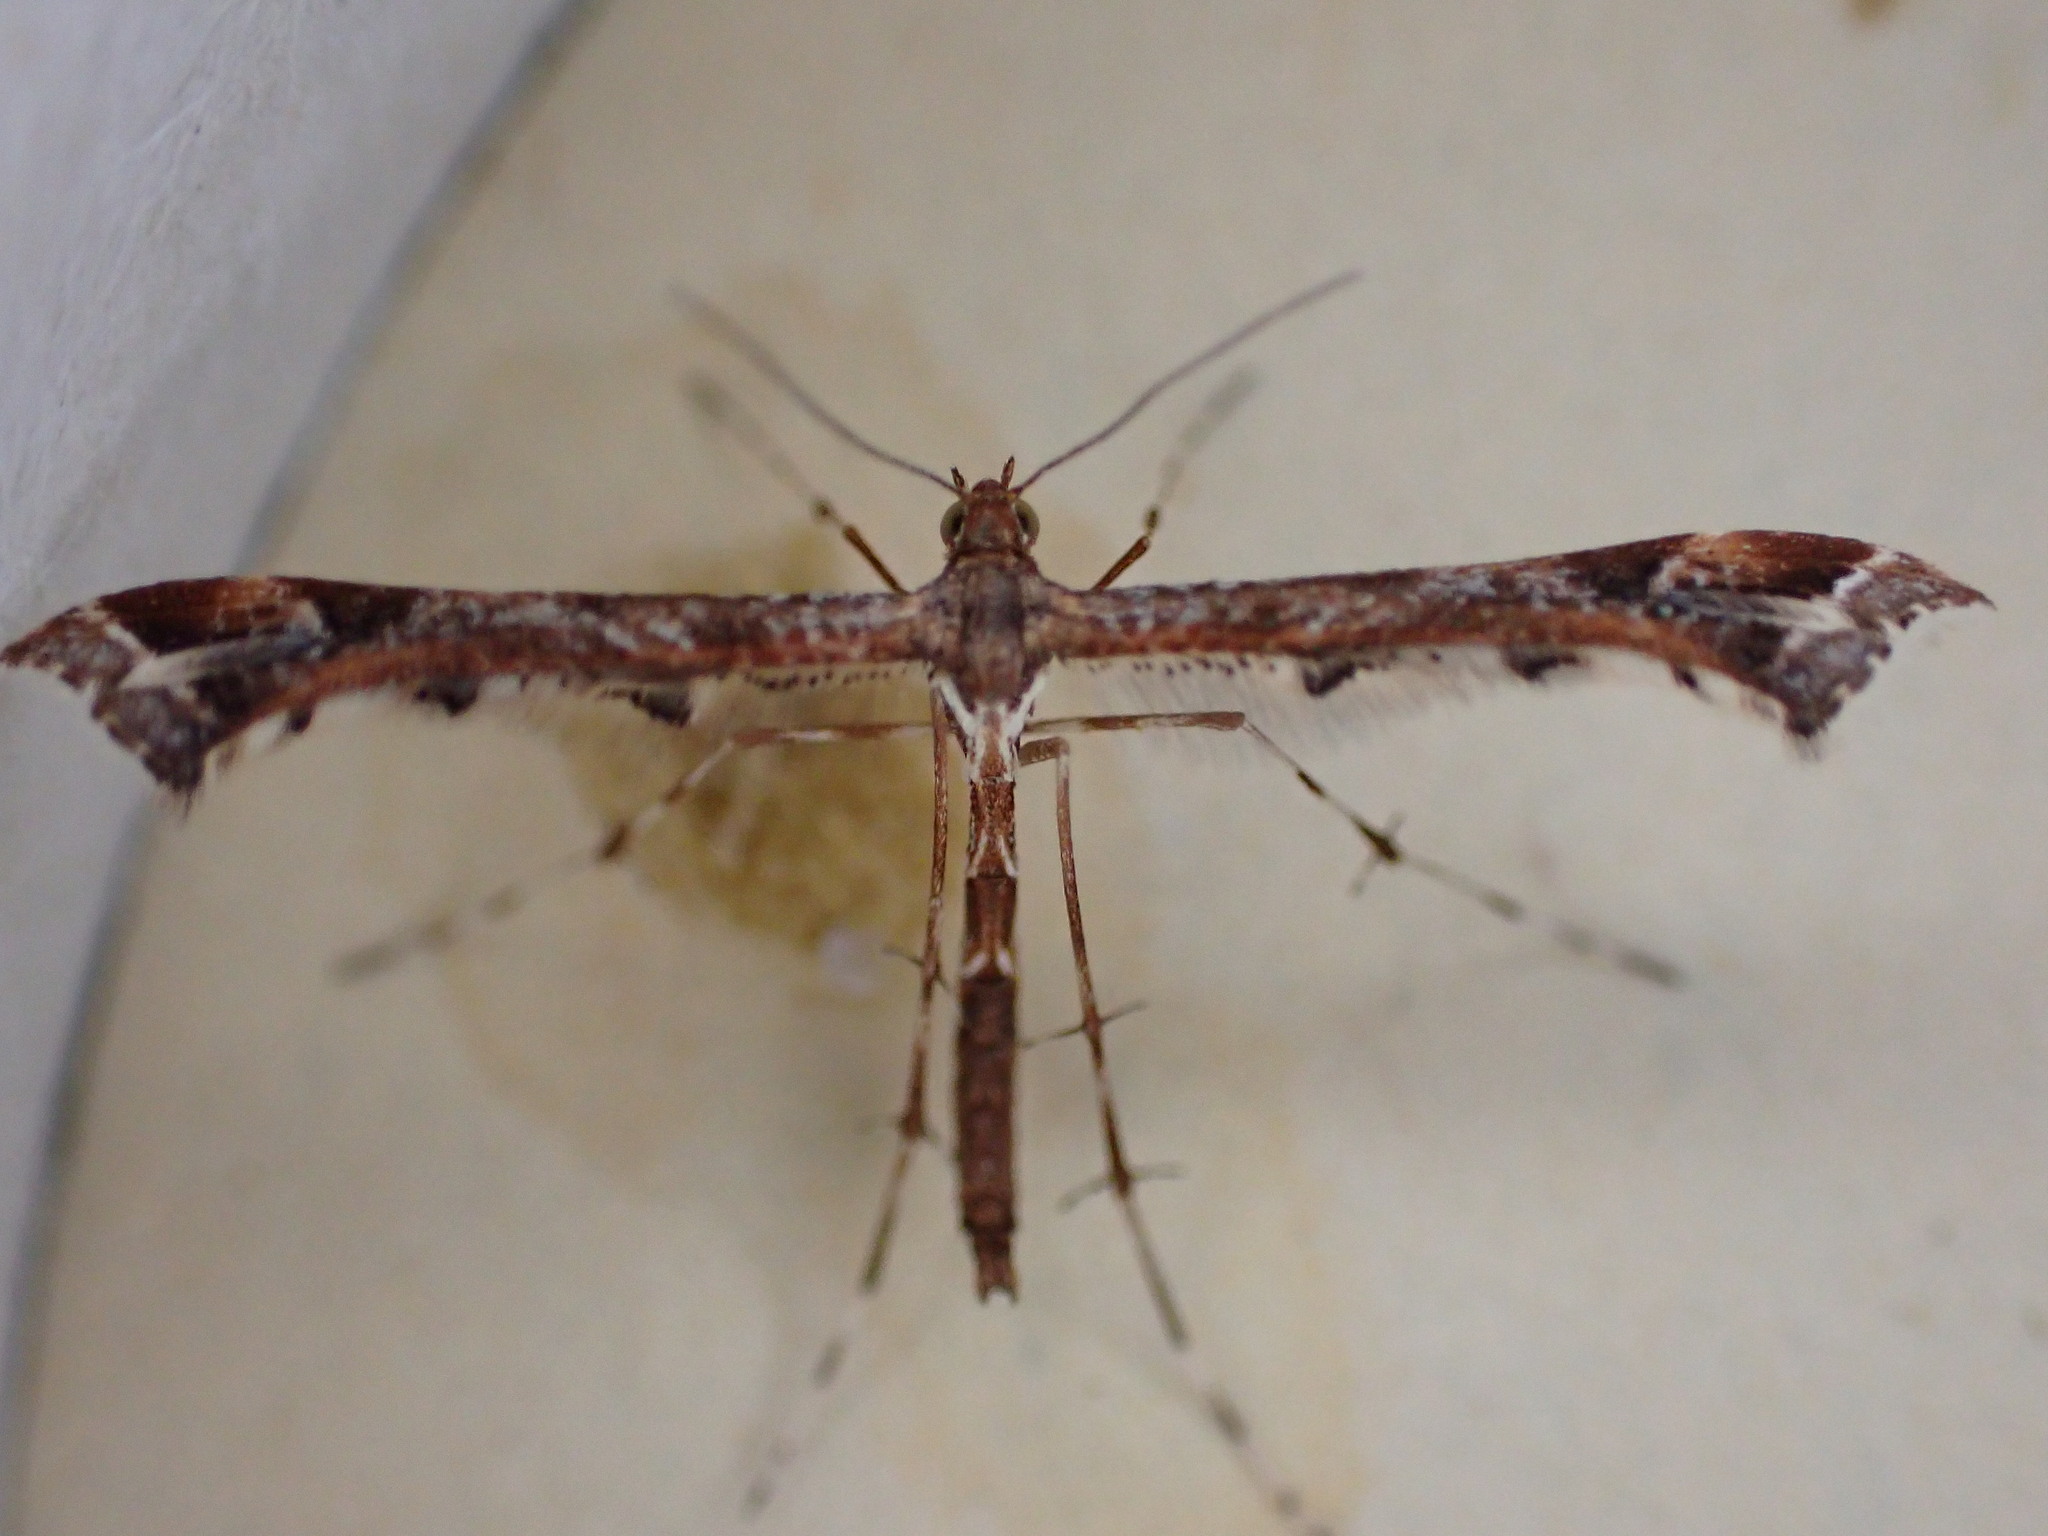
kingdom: Animalia
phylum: Arthropoda
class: Insecta
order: Lepidoptera
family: Pterophoridae
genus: Amblyptilia
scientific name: Amblyptilia acanthadactyla
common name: Beautiful plume
